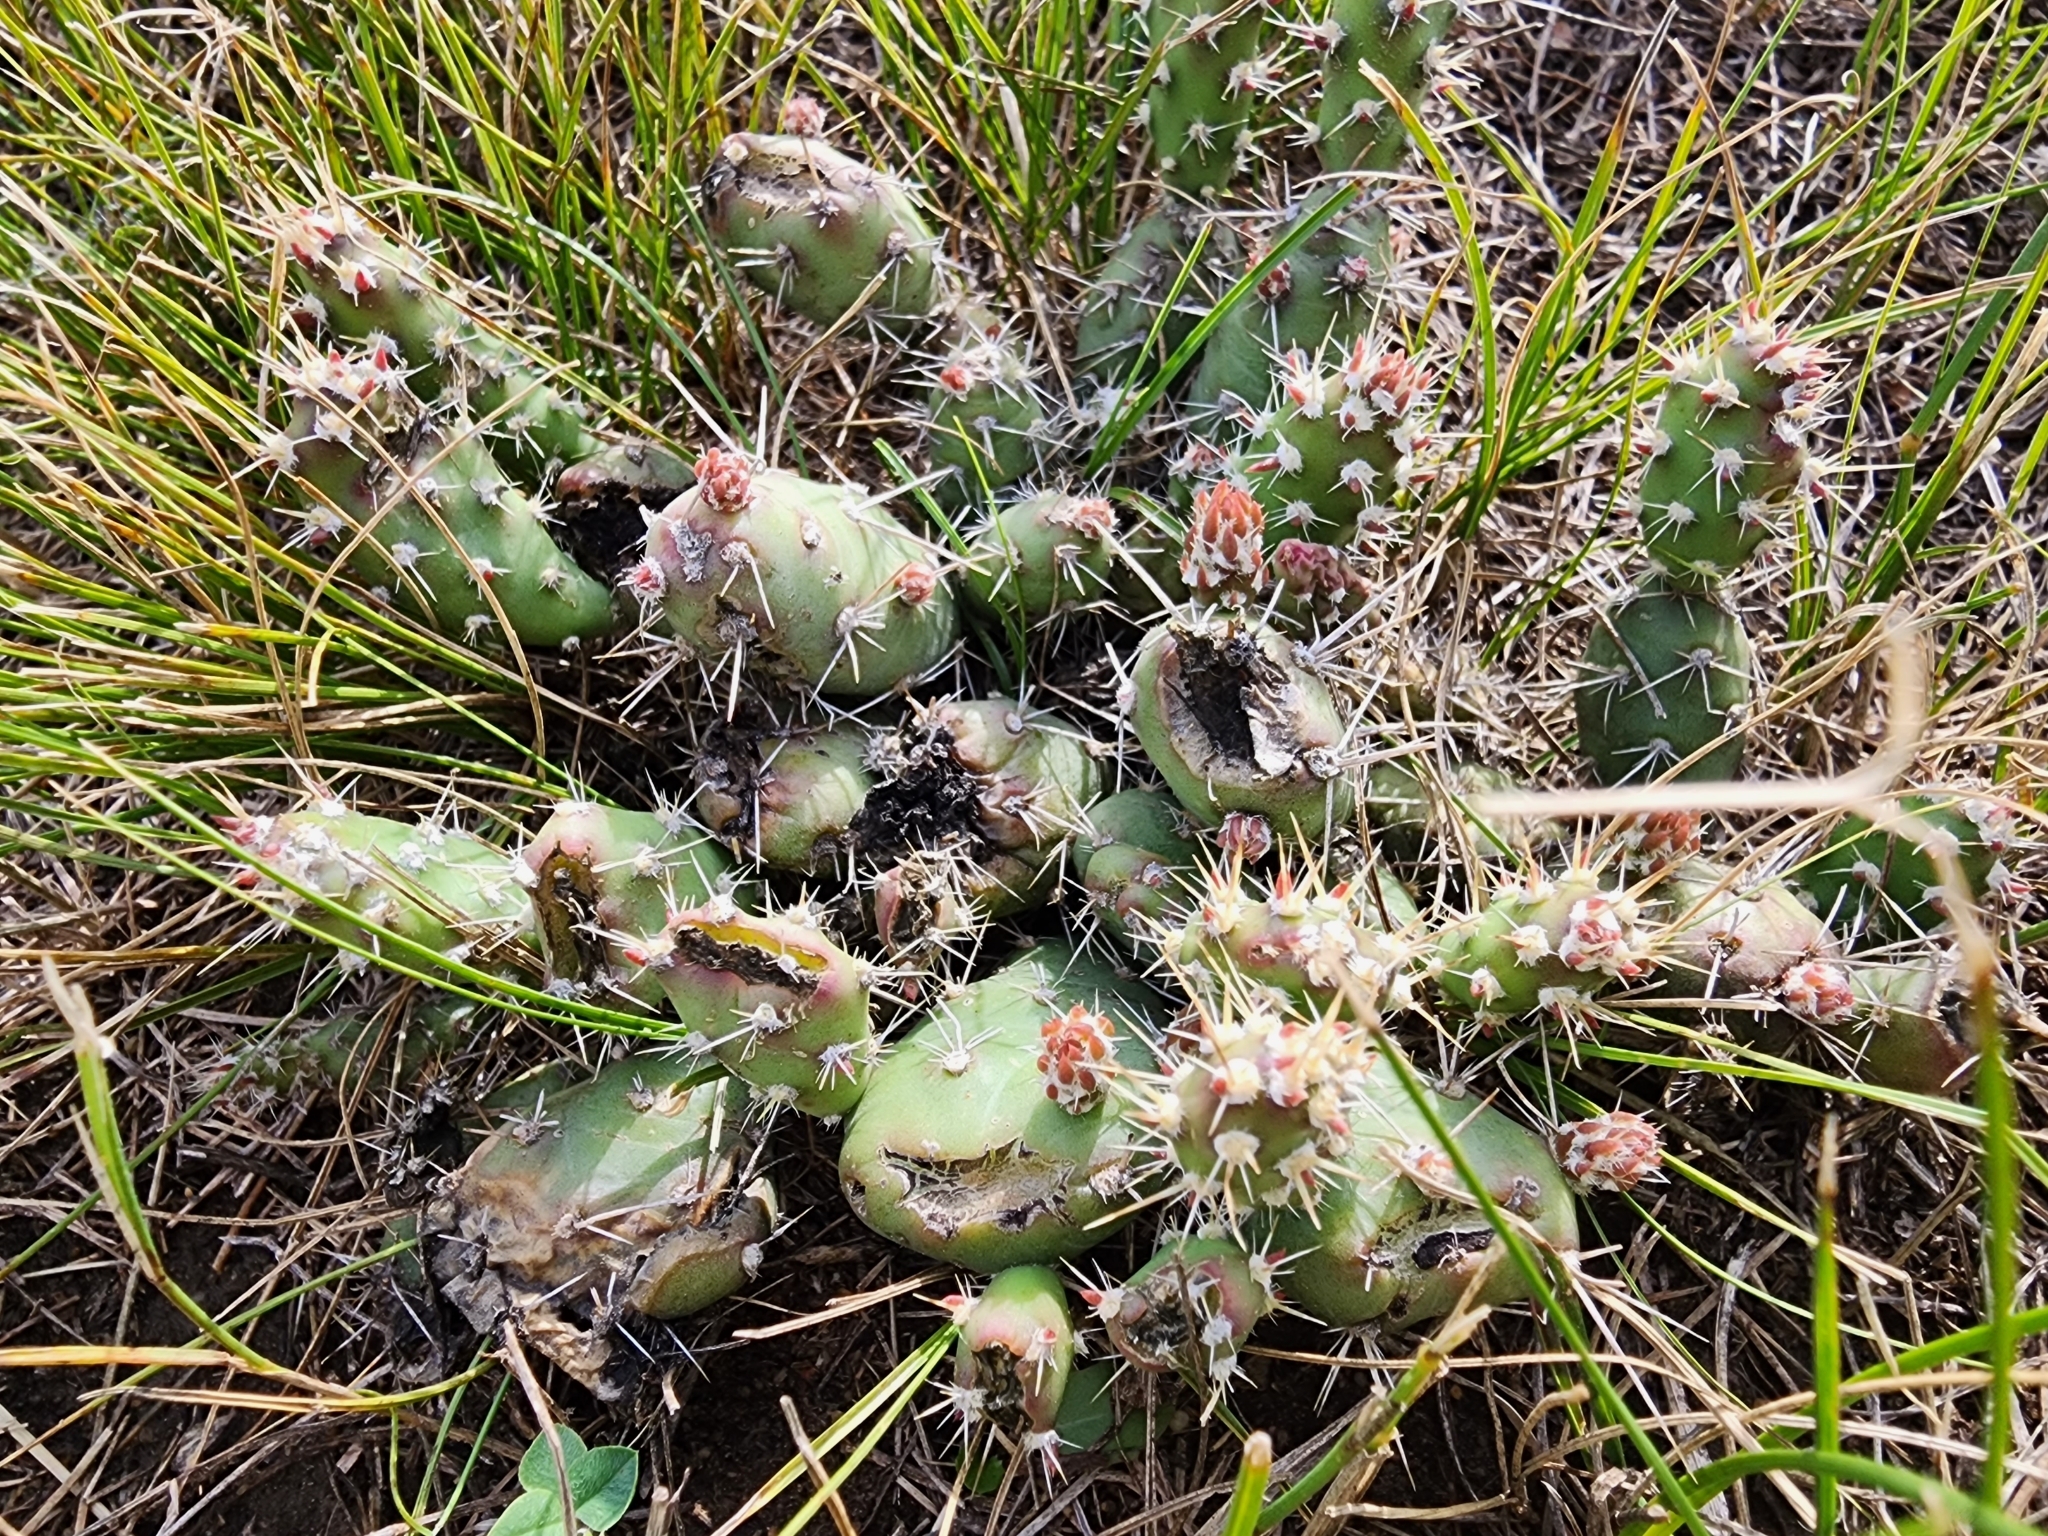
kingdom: Plantae
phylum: Tracheophyta
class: Magnoliopsida
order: Caryophyllales
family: Cactaceae
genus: Opuntia
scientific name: Opuntia fragilis
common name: Brittle cactus
